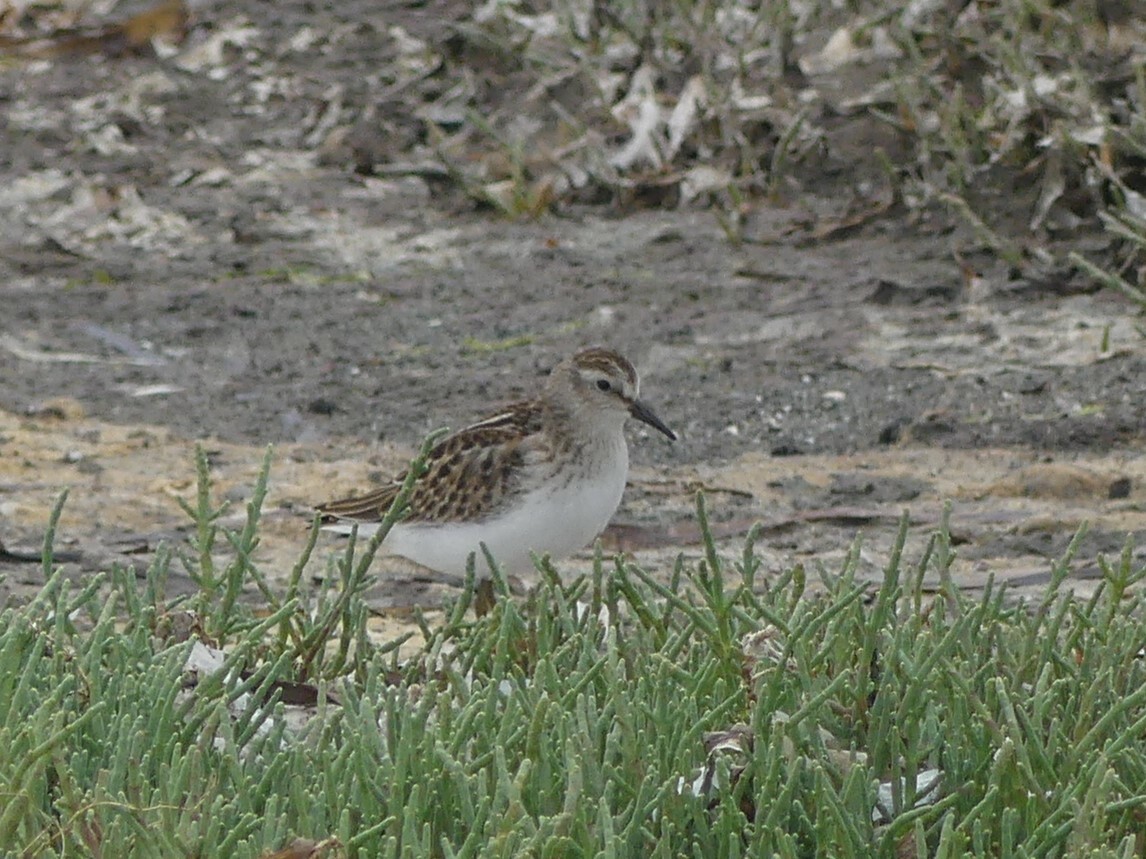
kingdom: Animalia
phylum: Chordata
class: Aves
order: Charadriiformes
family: Scolopacidae
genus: Calidris
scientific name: Calidris minutilla
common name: Least sandpiper
